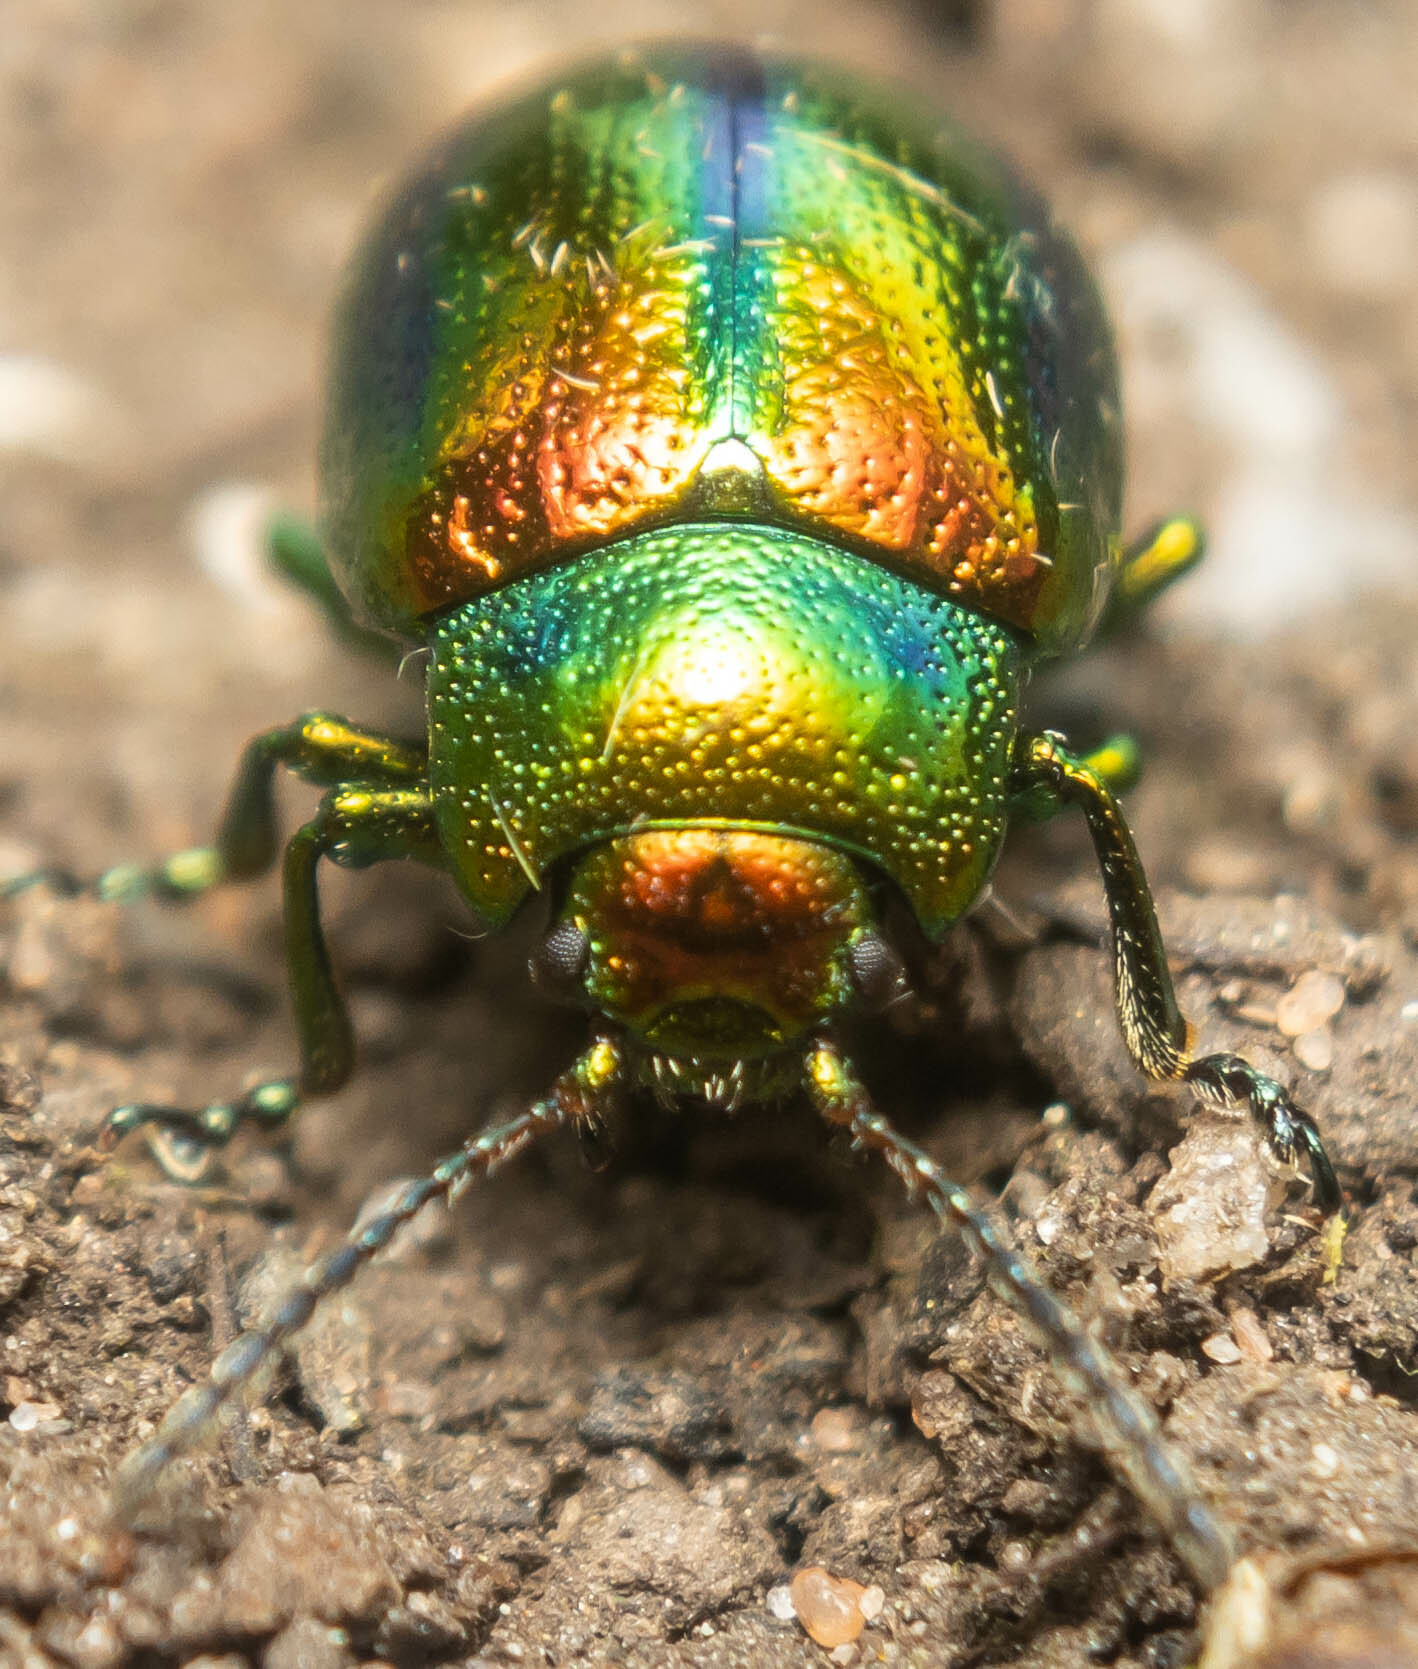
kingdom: Animalia
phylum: Arthropoda
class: Insecta
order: Coleoptera
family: Chrysomelidae
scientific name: Chrysomelidae
